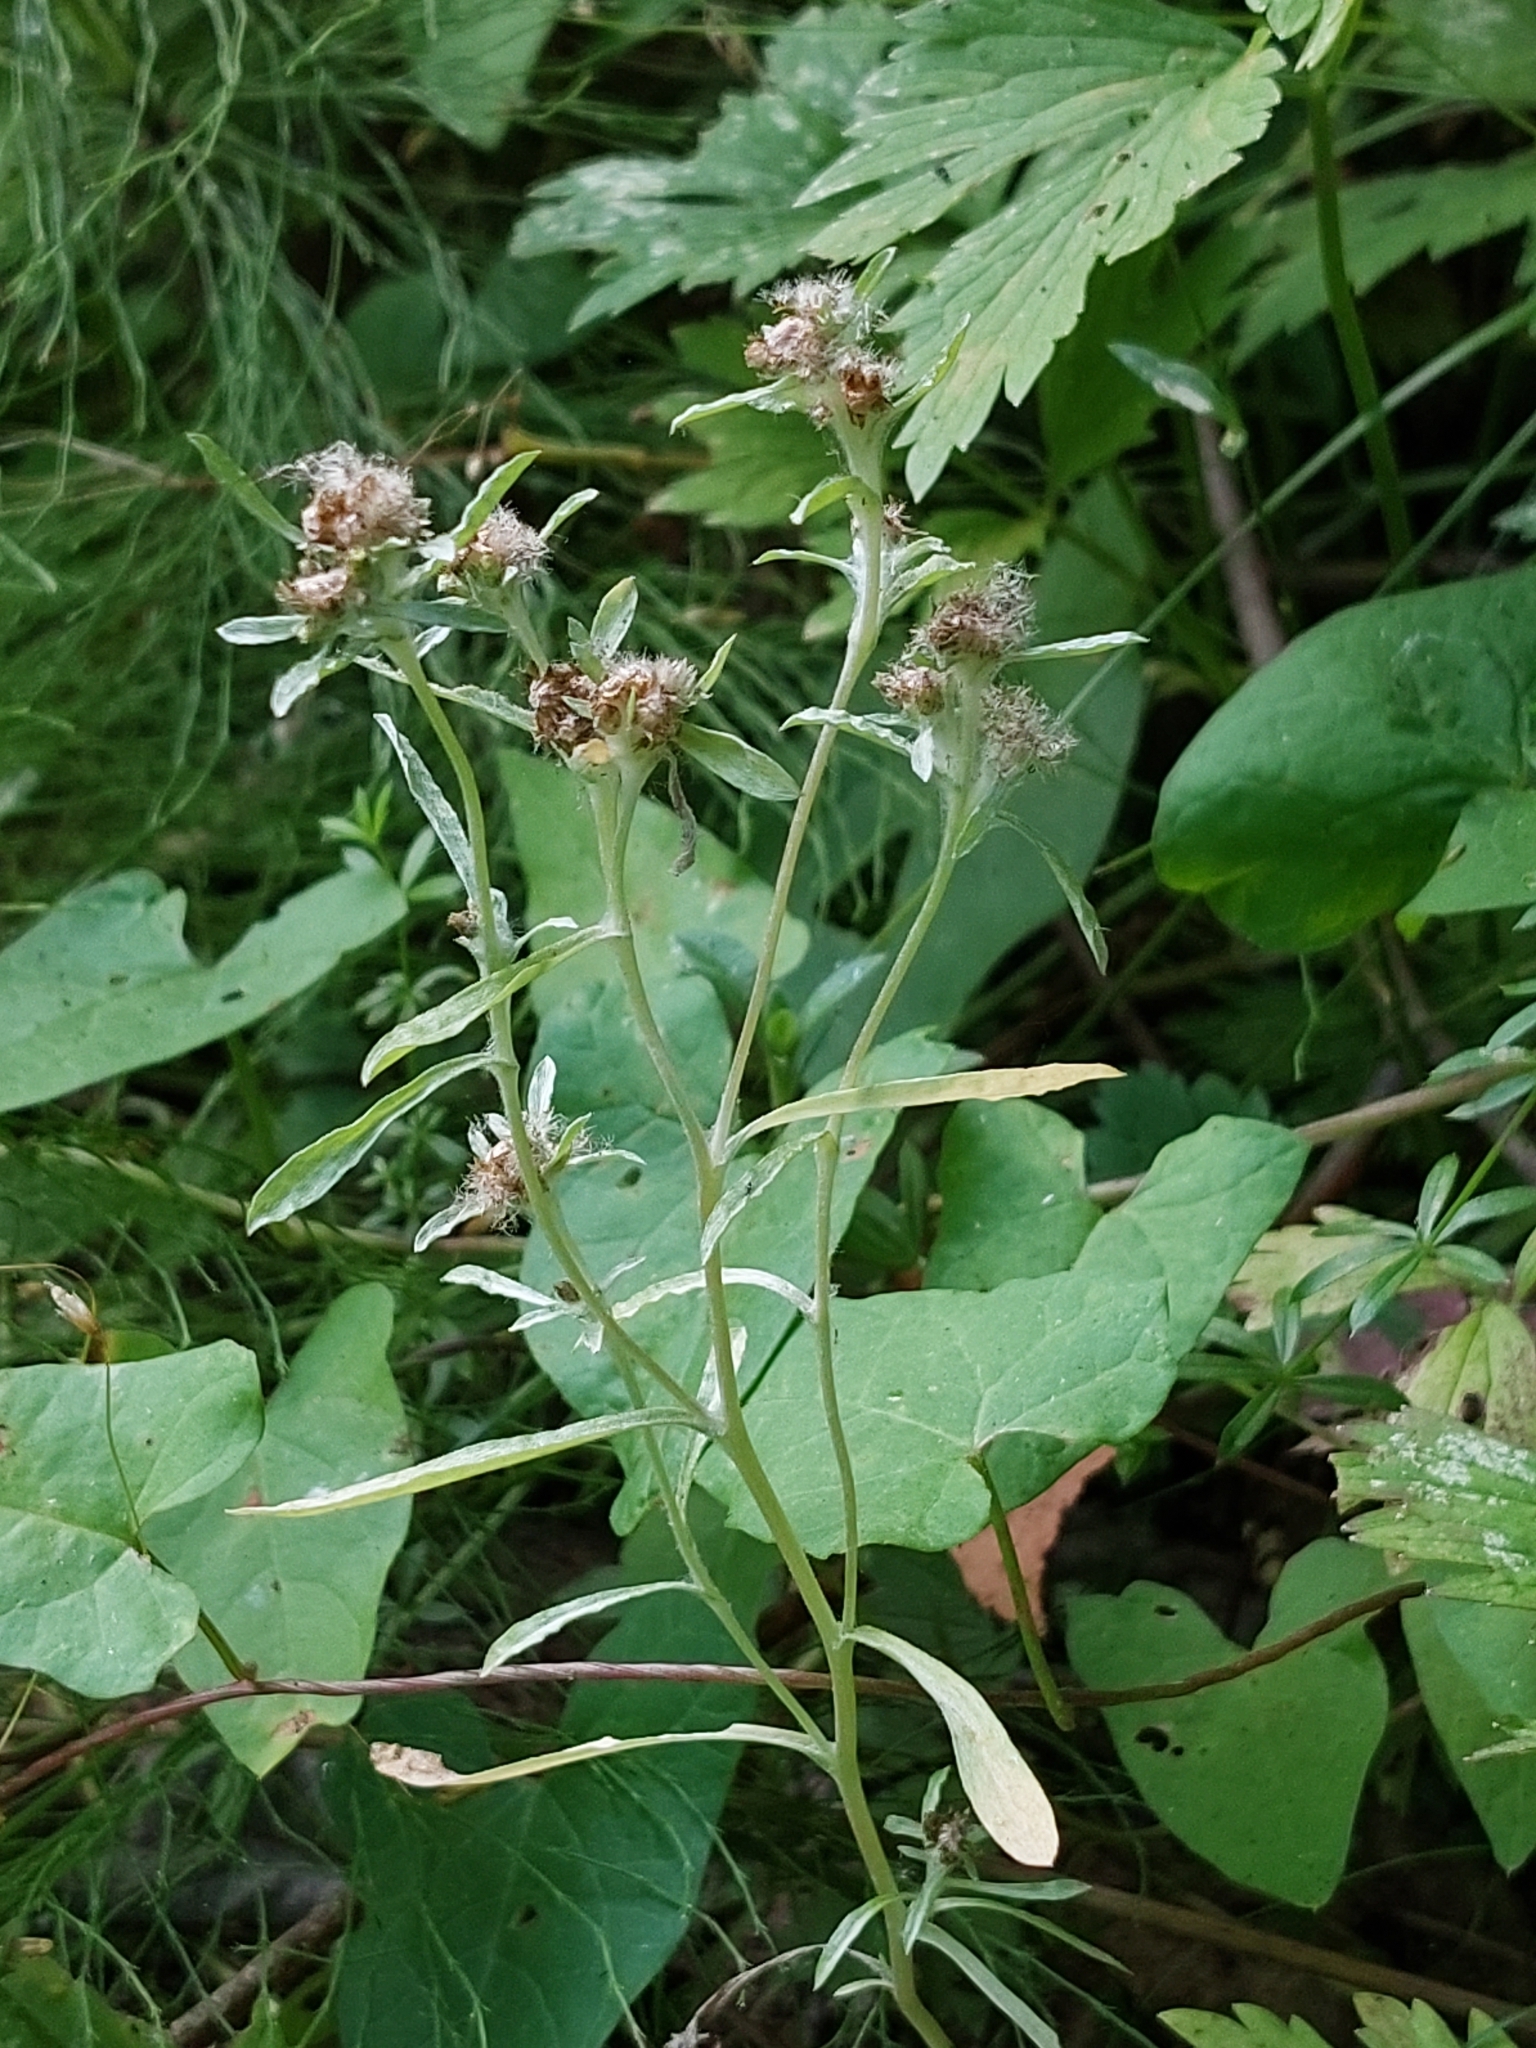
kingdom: Plantae
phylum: Tracheophyta
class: Magnoliopsida
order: Asterales
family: Asteraceae
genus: Gnaphalium
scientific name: Gnaphalium uliginosum
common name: Marsh cudweed
